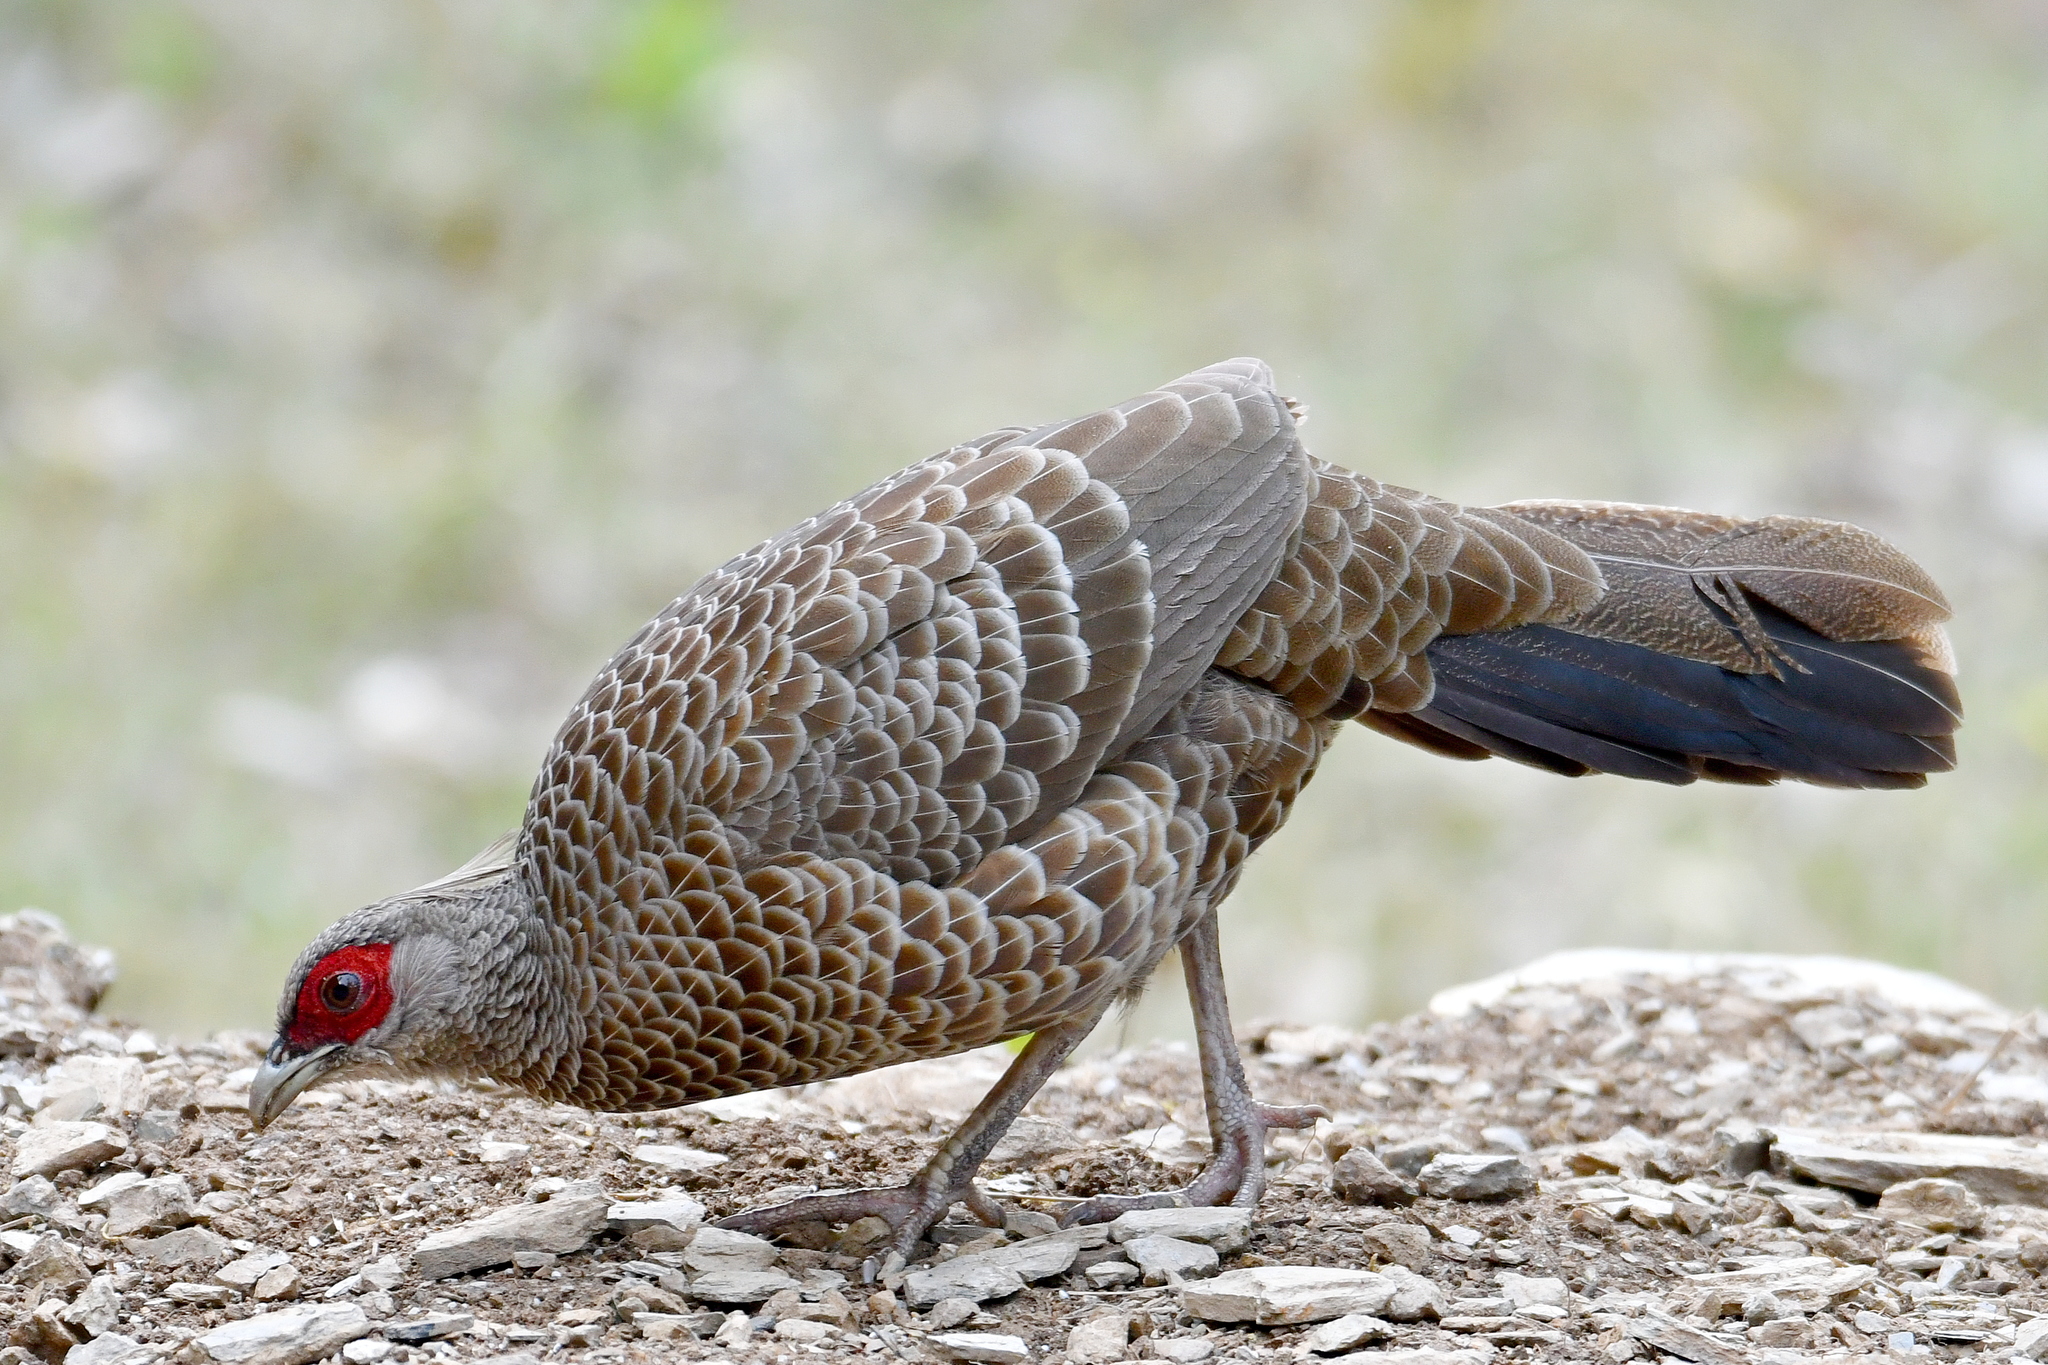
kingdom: Animalia
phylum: Chordata
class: Aves
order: Galliformes
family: Phasianidae
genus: Lophura
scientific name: Lophura leucomelanos
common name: Kalij pheasant
